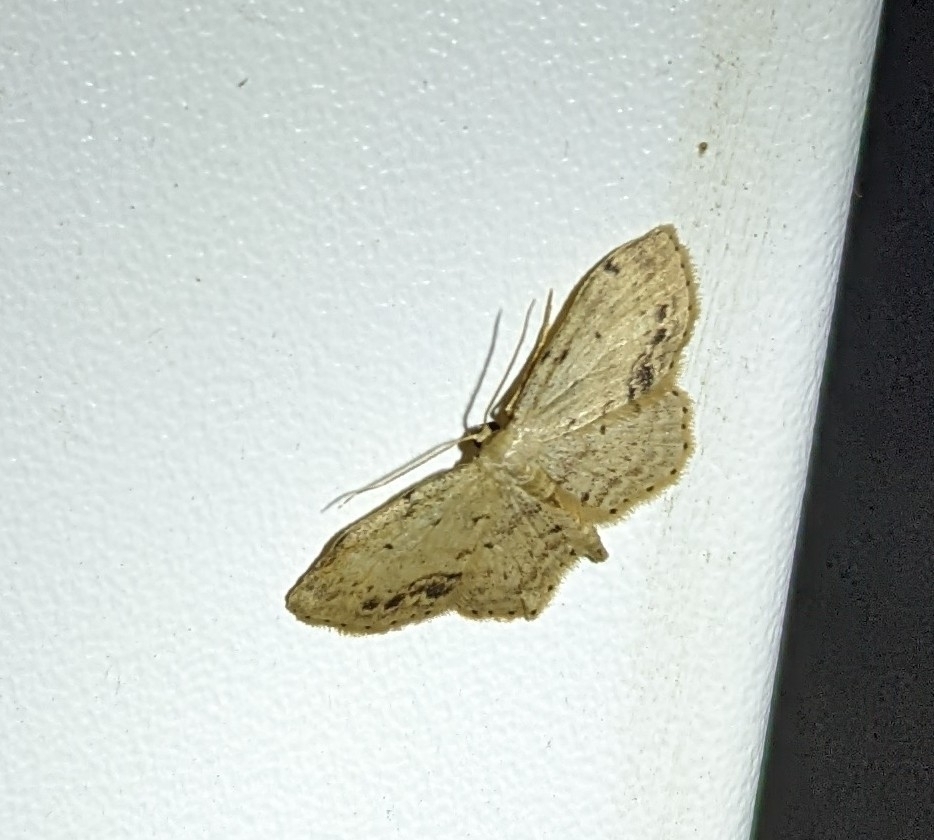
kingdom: Animalia
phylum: Arthropoda
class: Insecta
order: Lepidoptera
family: Geometridae
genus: Idaea
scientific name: Idaea dimidiata
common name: Single-dotted wave
